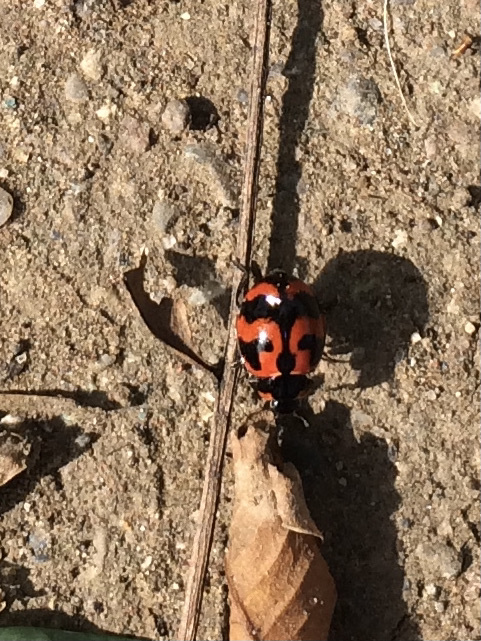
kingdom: Animalia
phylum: Arthropoda
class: Insecta
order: Coleoptera
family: Coccinellidae
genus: Coccinella
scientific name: Coccinella transversalis
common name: Transverse lady beetle
